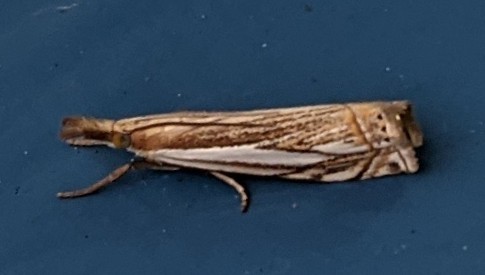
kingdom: Animalia
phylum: Arthropoda
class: Insecta
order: Lepidoptera
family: Crambidae
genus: Crambus
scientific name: Crambus saltuellus
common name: Pasture grass-veneer
